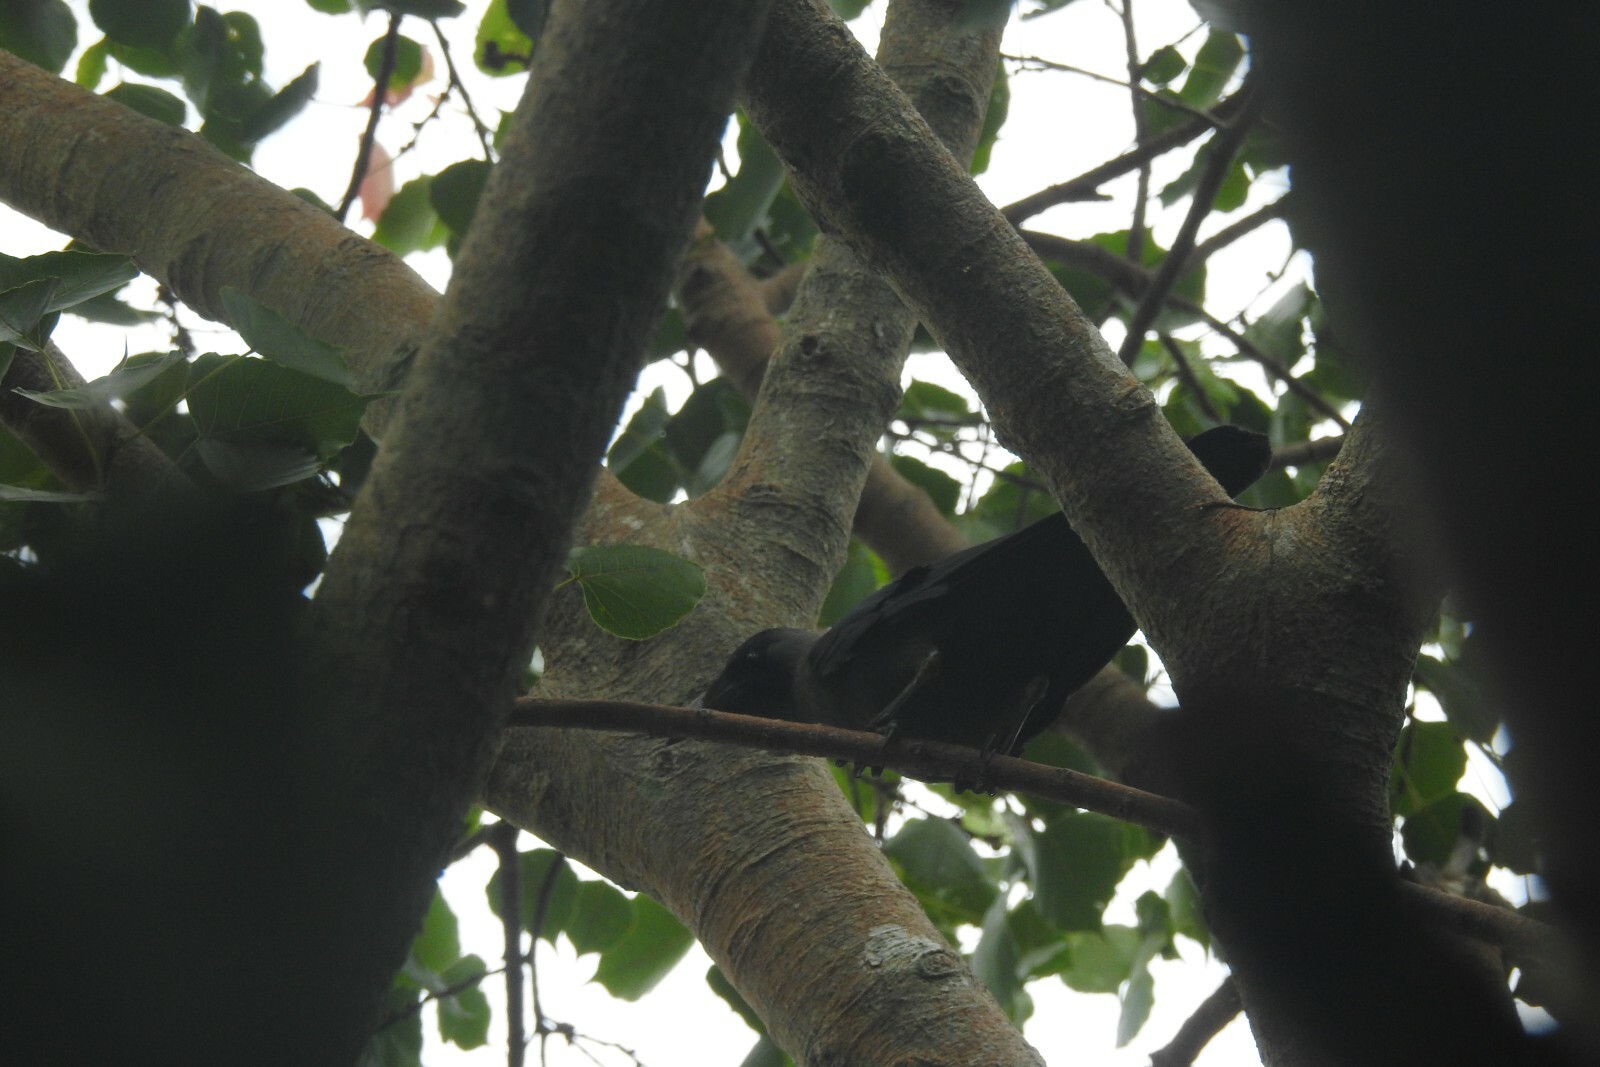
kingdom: Animalia
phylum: Chordata
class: Aves
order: Passeriformes
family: Corvidae
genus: Corvus
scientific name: Corvus splendens
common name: House crow
